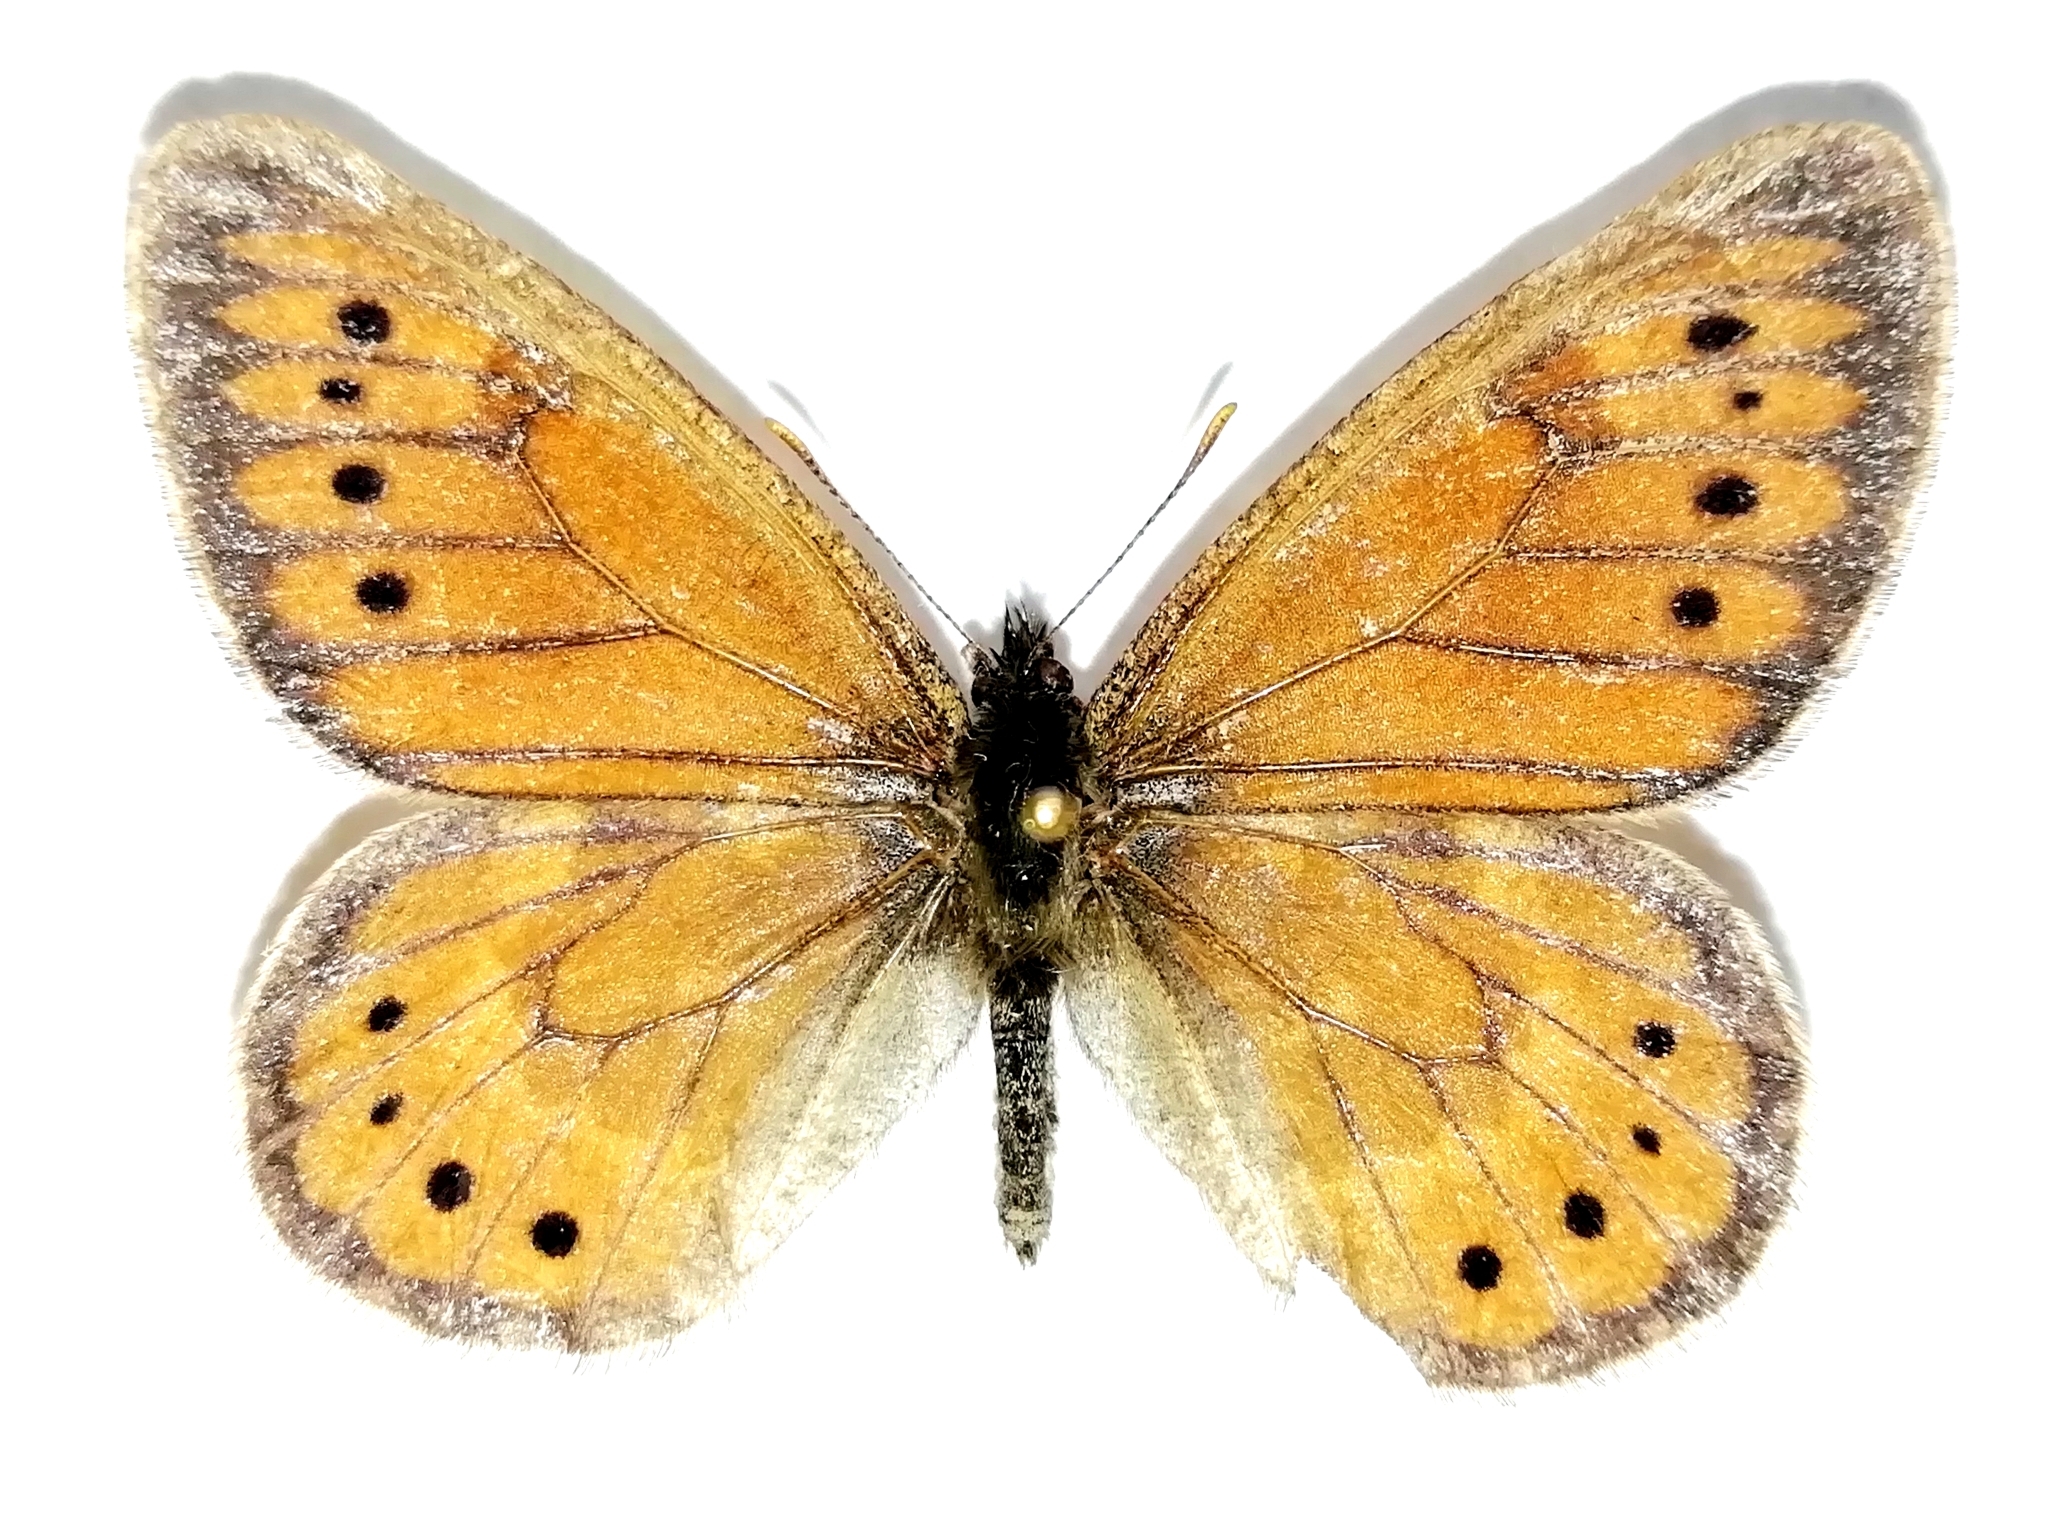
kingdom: Animalia
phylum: Arthropoda
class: Insecta
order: Lepidoptera
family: Nymphalidae
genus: Oeneis
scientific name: Oeneis tarpeia
